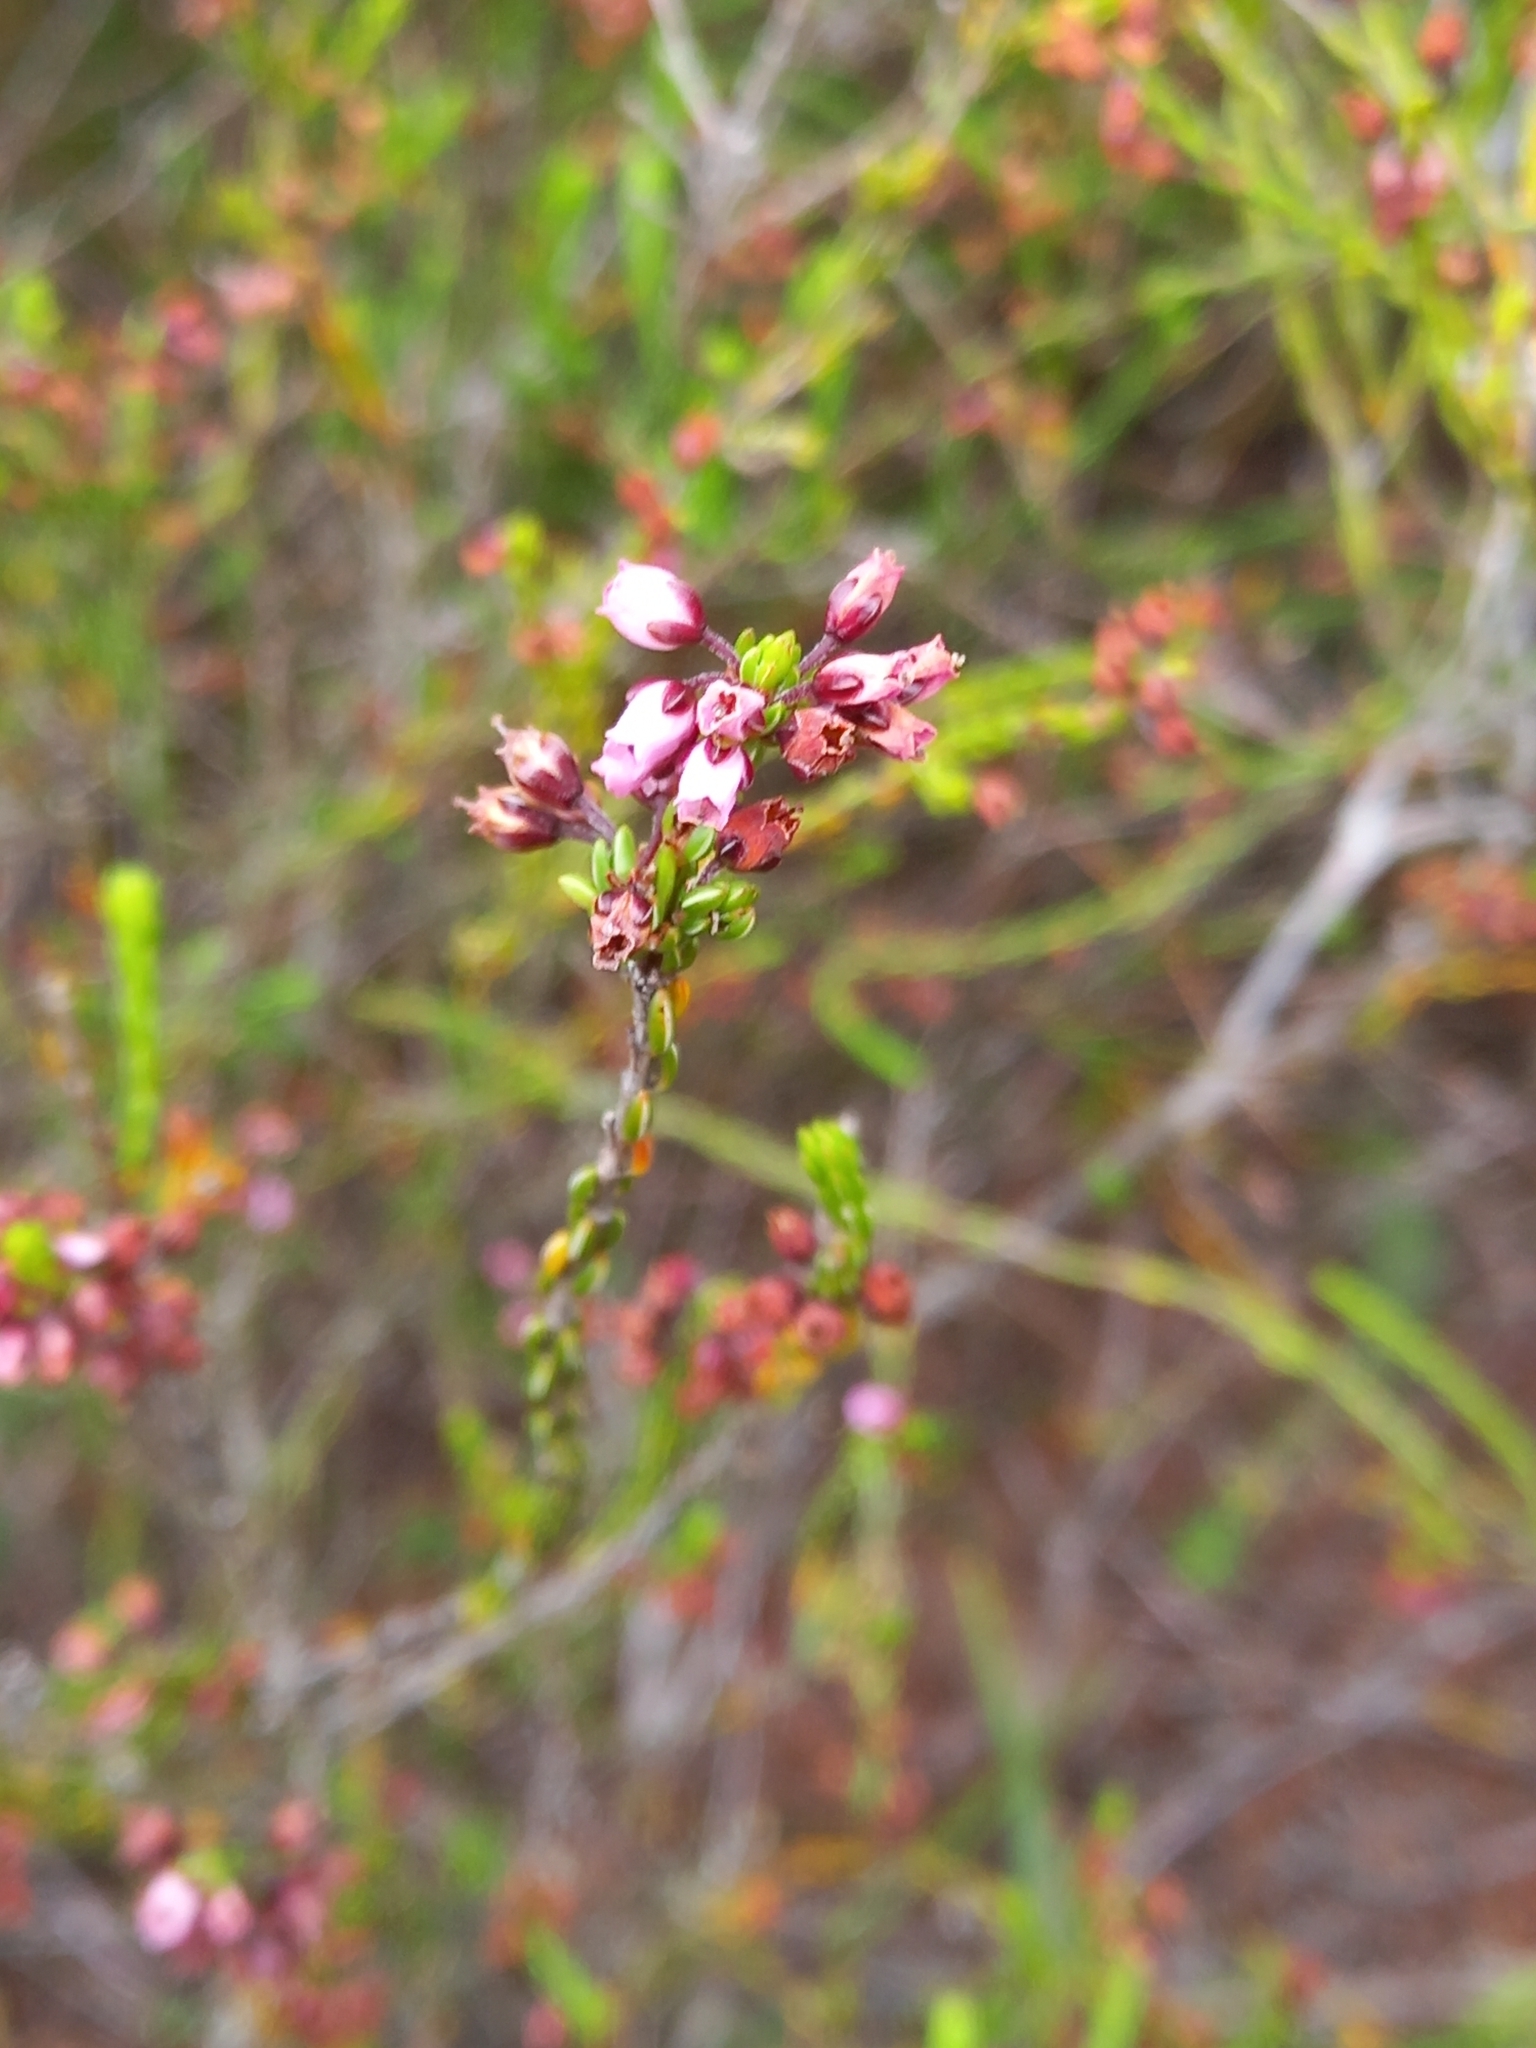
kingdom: Plantae
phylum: Tracheophyta
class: Magnoliopsida
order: Ericales
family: Ericaceae
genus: Erica
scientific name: Erica pulchella
